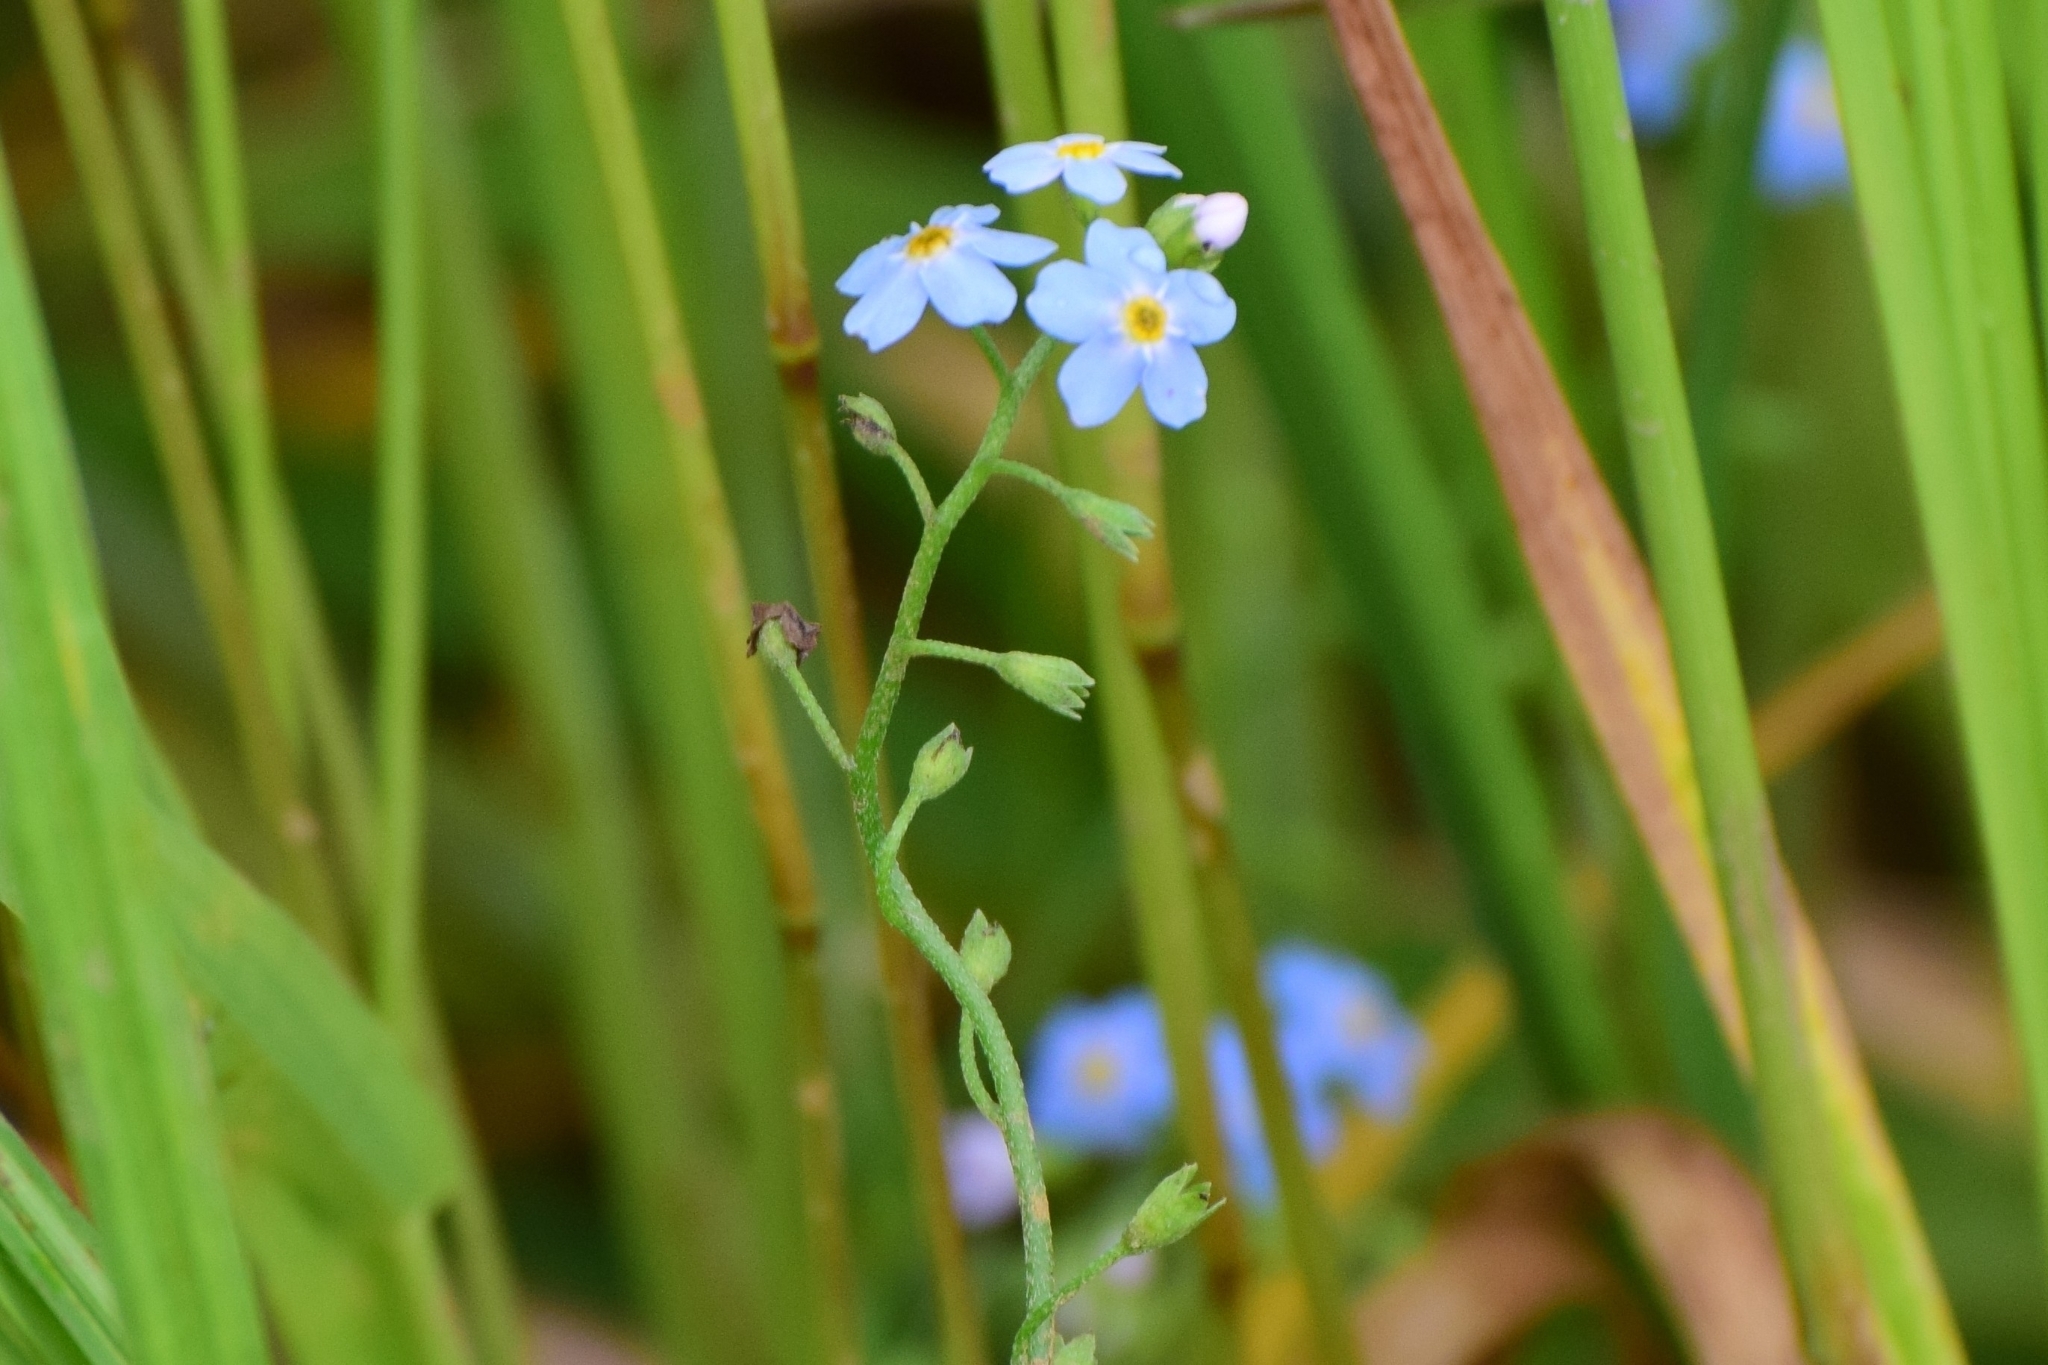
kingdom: Plantae
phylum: Tracheophyta
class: Magnoliopsida
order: Boraginales
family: Boraginaceae
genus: Myosotis
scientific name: Myosotis scorpioides
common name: Water forget-me-not
